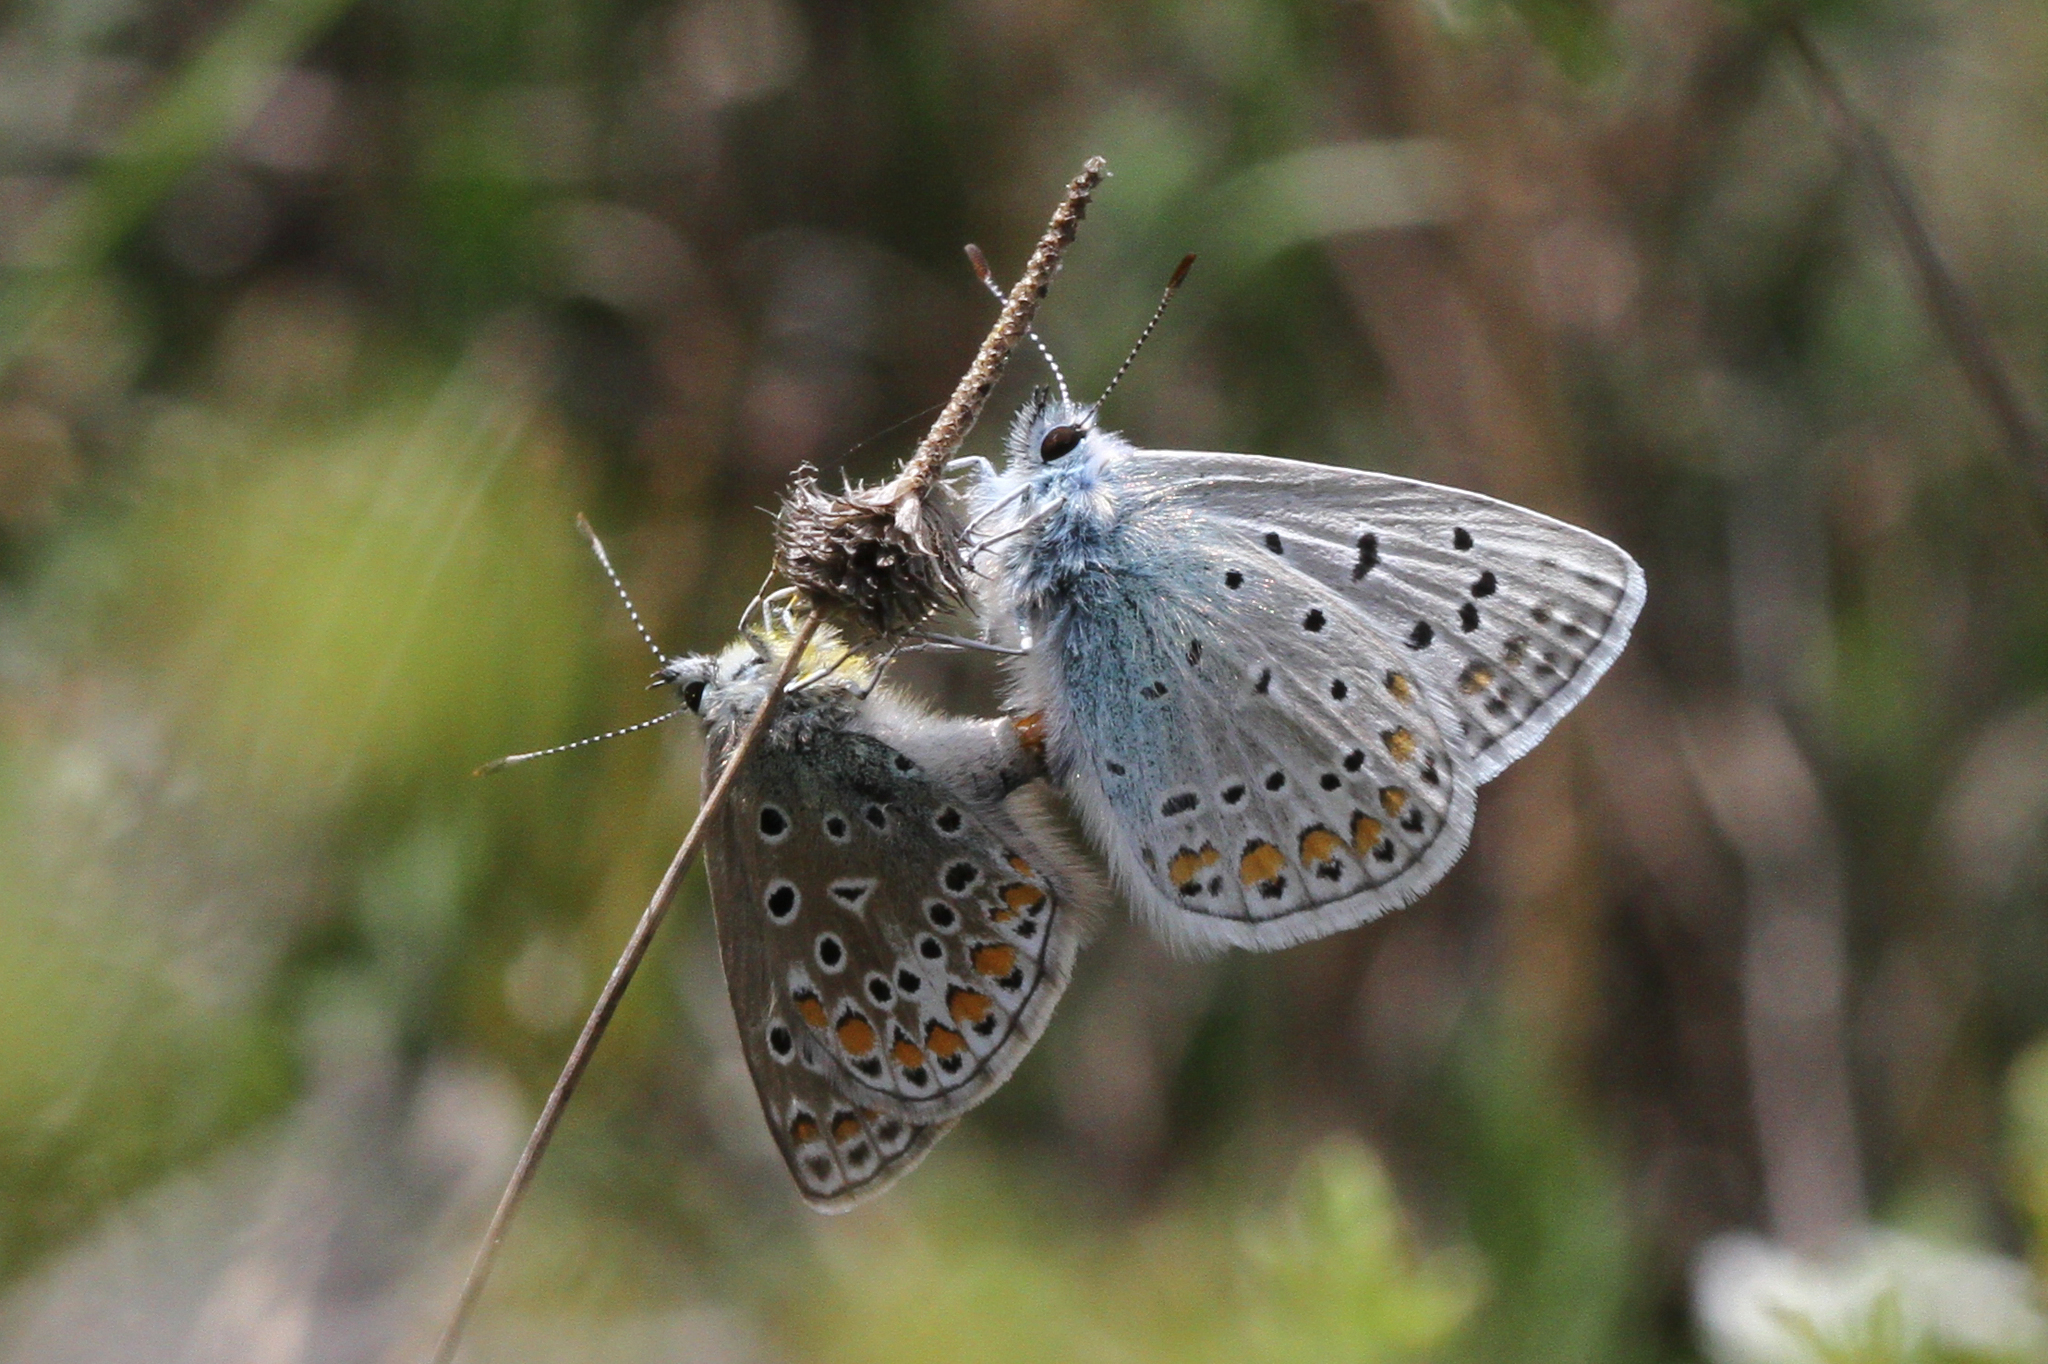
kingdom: Animalia
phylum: Arthropoda
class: Insecta
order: Lepidoptera
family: Lycaenidae
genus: Polyommatus
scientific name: Polyommatus icarus
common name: Common blue
